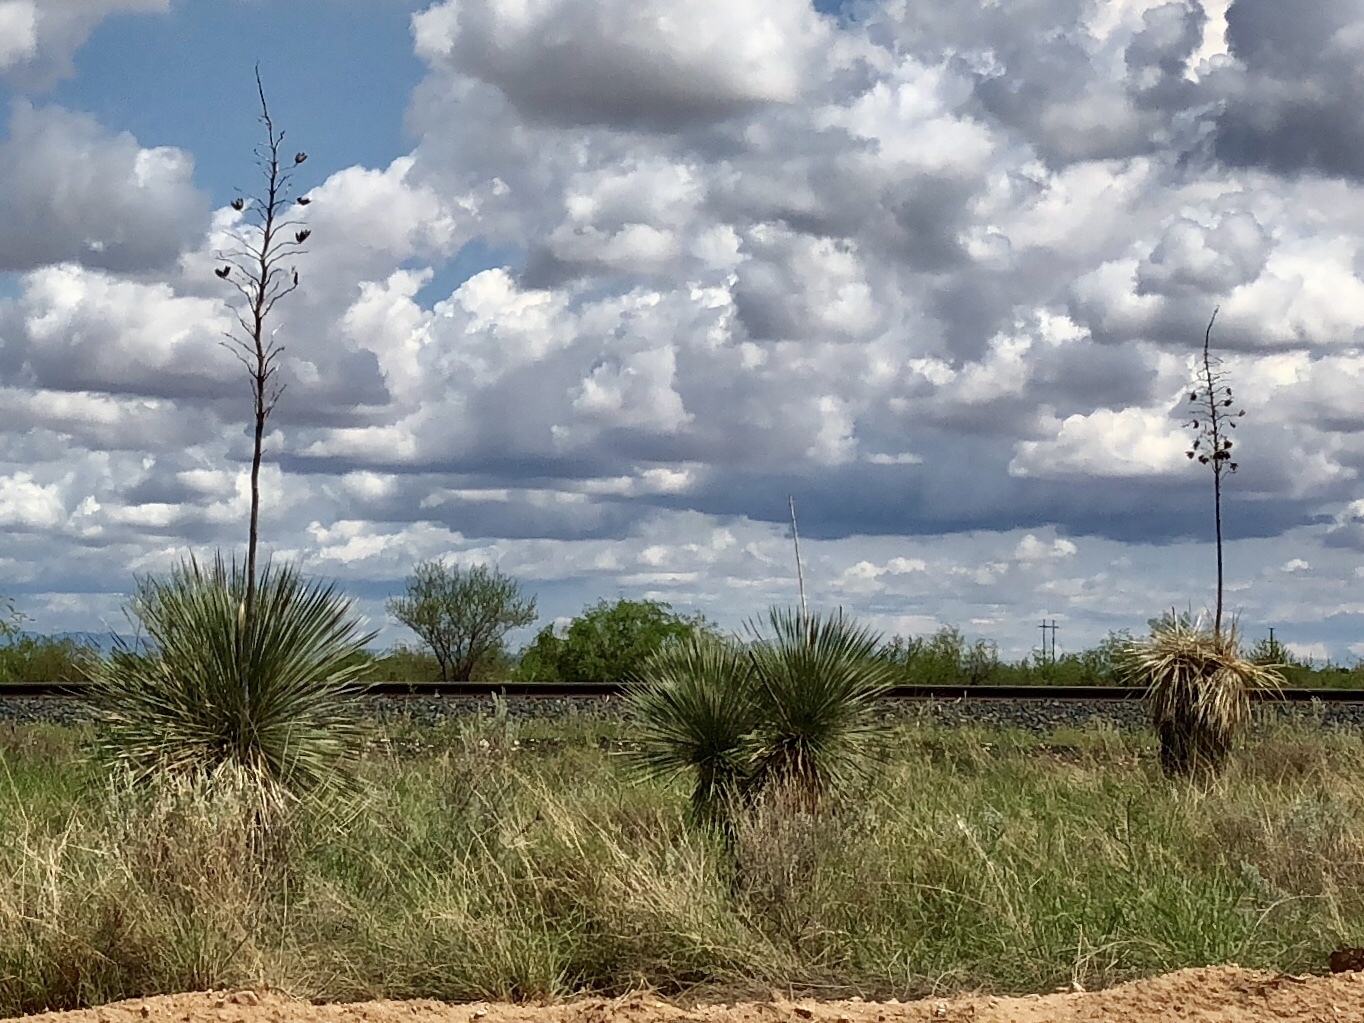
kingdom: Plantae
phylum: Tracheophyta
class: Liliopsida
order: Asparagales
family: Asparagaceae
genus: Yucca
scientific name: Yucca elata
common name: Palmella
